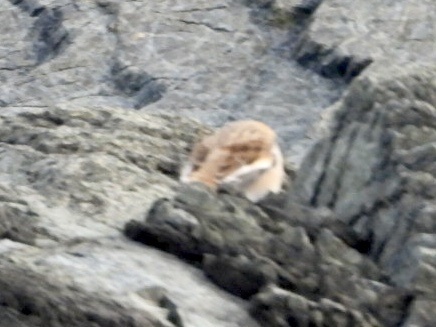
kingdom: Animalia
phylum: Chordata
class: Aves
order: Passeriformes
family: Calcariidae
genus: Plectrophenax
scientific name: Plectrophenax nivalis
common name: Snow bunting
